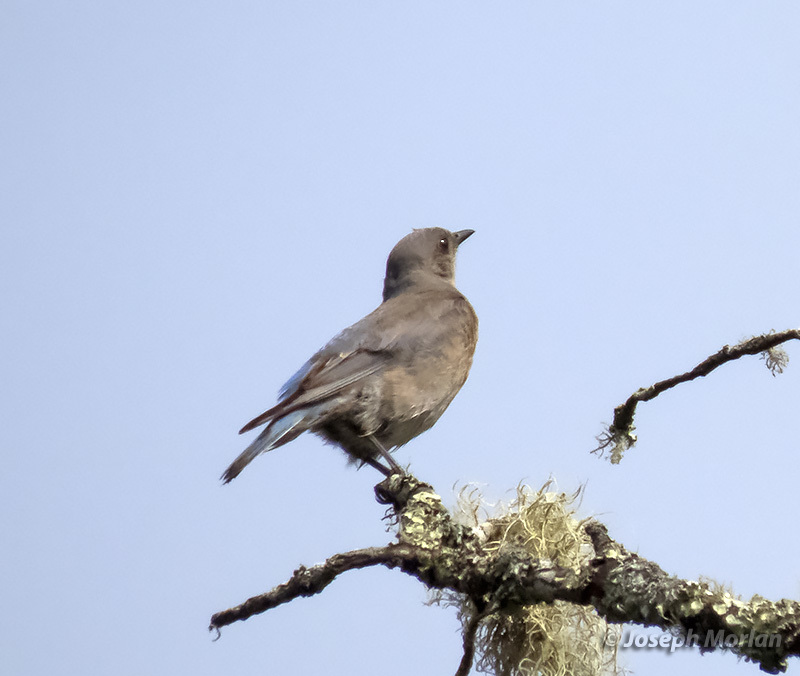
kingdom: Animalia
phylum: Chordata
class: Aves
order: Passeriformes
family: Turdidae
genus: Sialia
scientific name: Sialia mexicana
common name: Western bluebird
